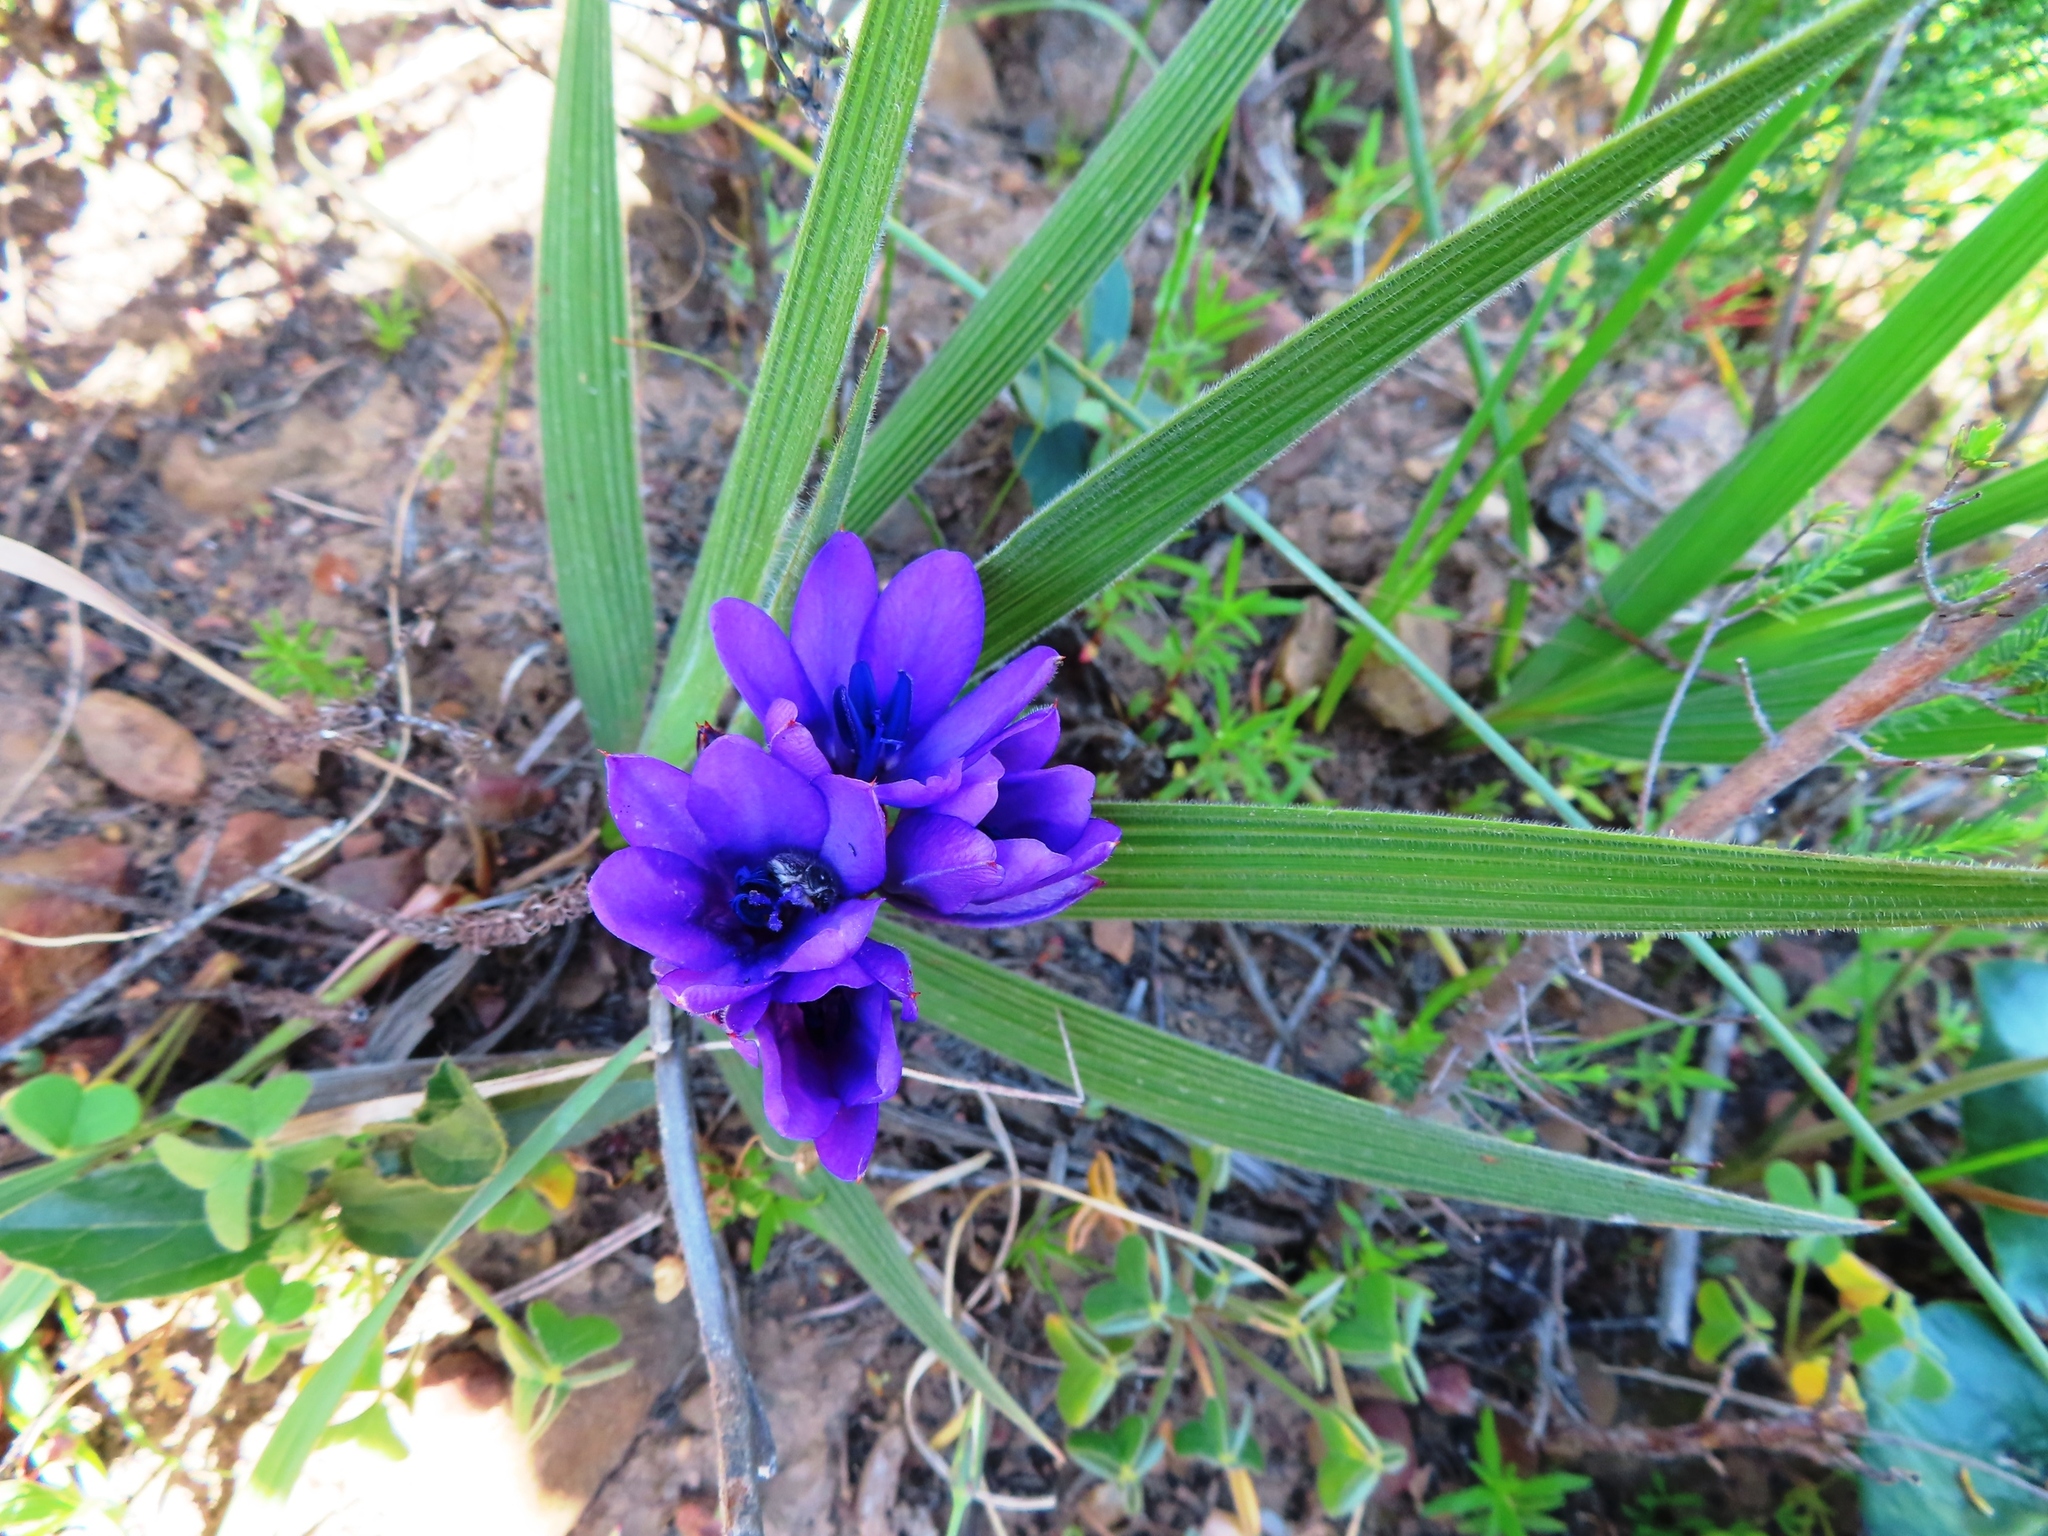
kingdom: Plantae
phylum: Tracheophyta
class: Liliopsida
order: Asparagales
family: Iridaceae
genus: Babiana
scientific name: Babiana angustifolia
